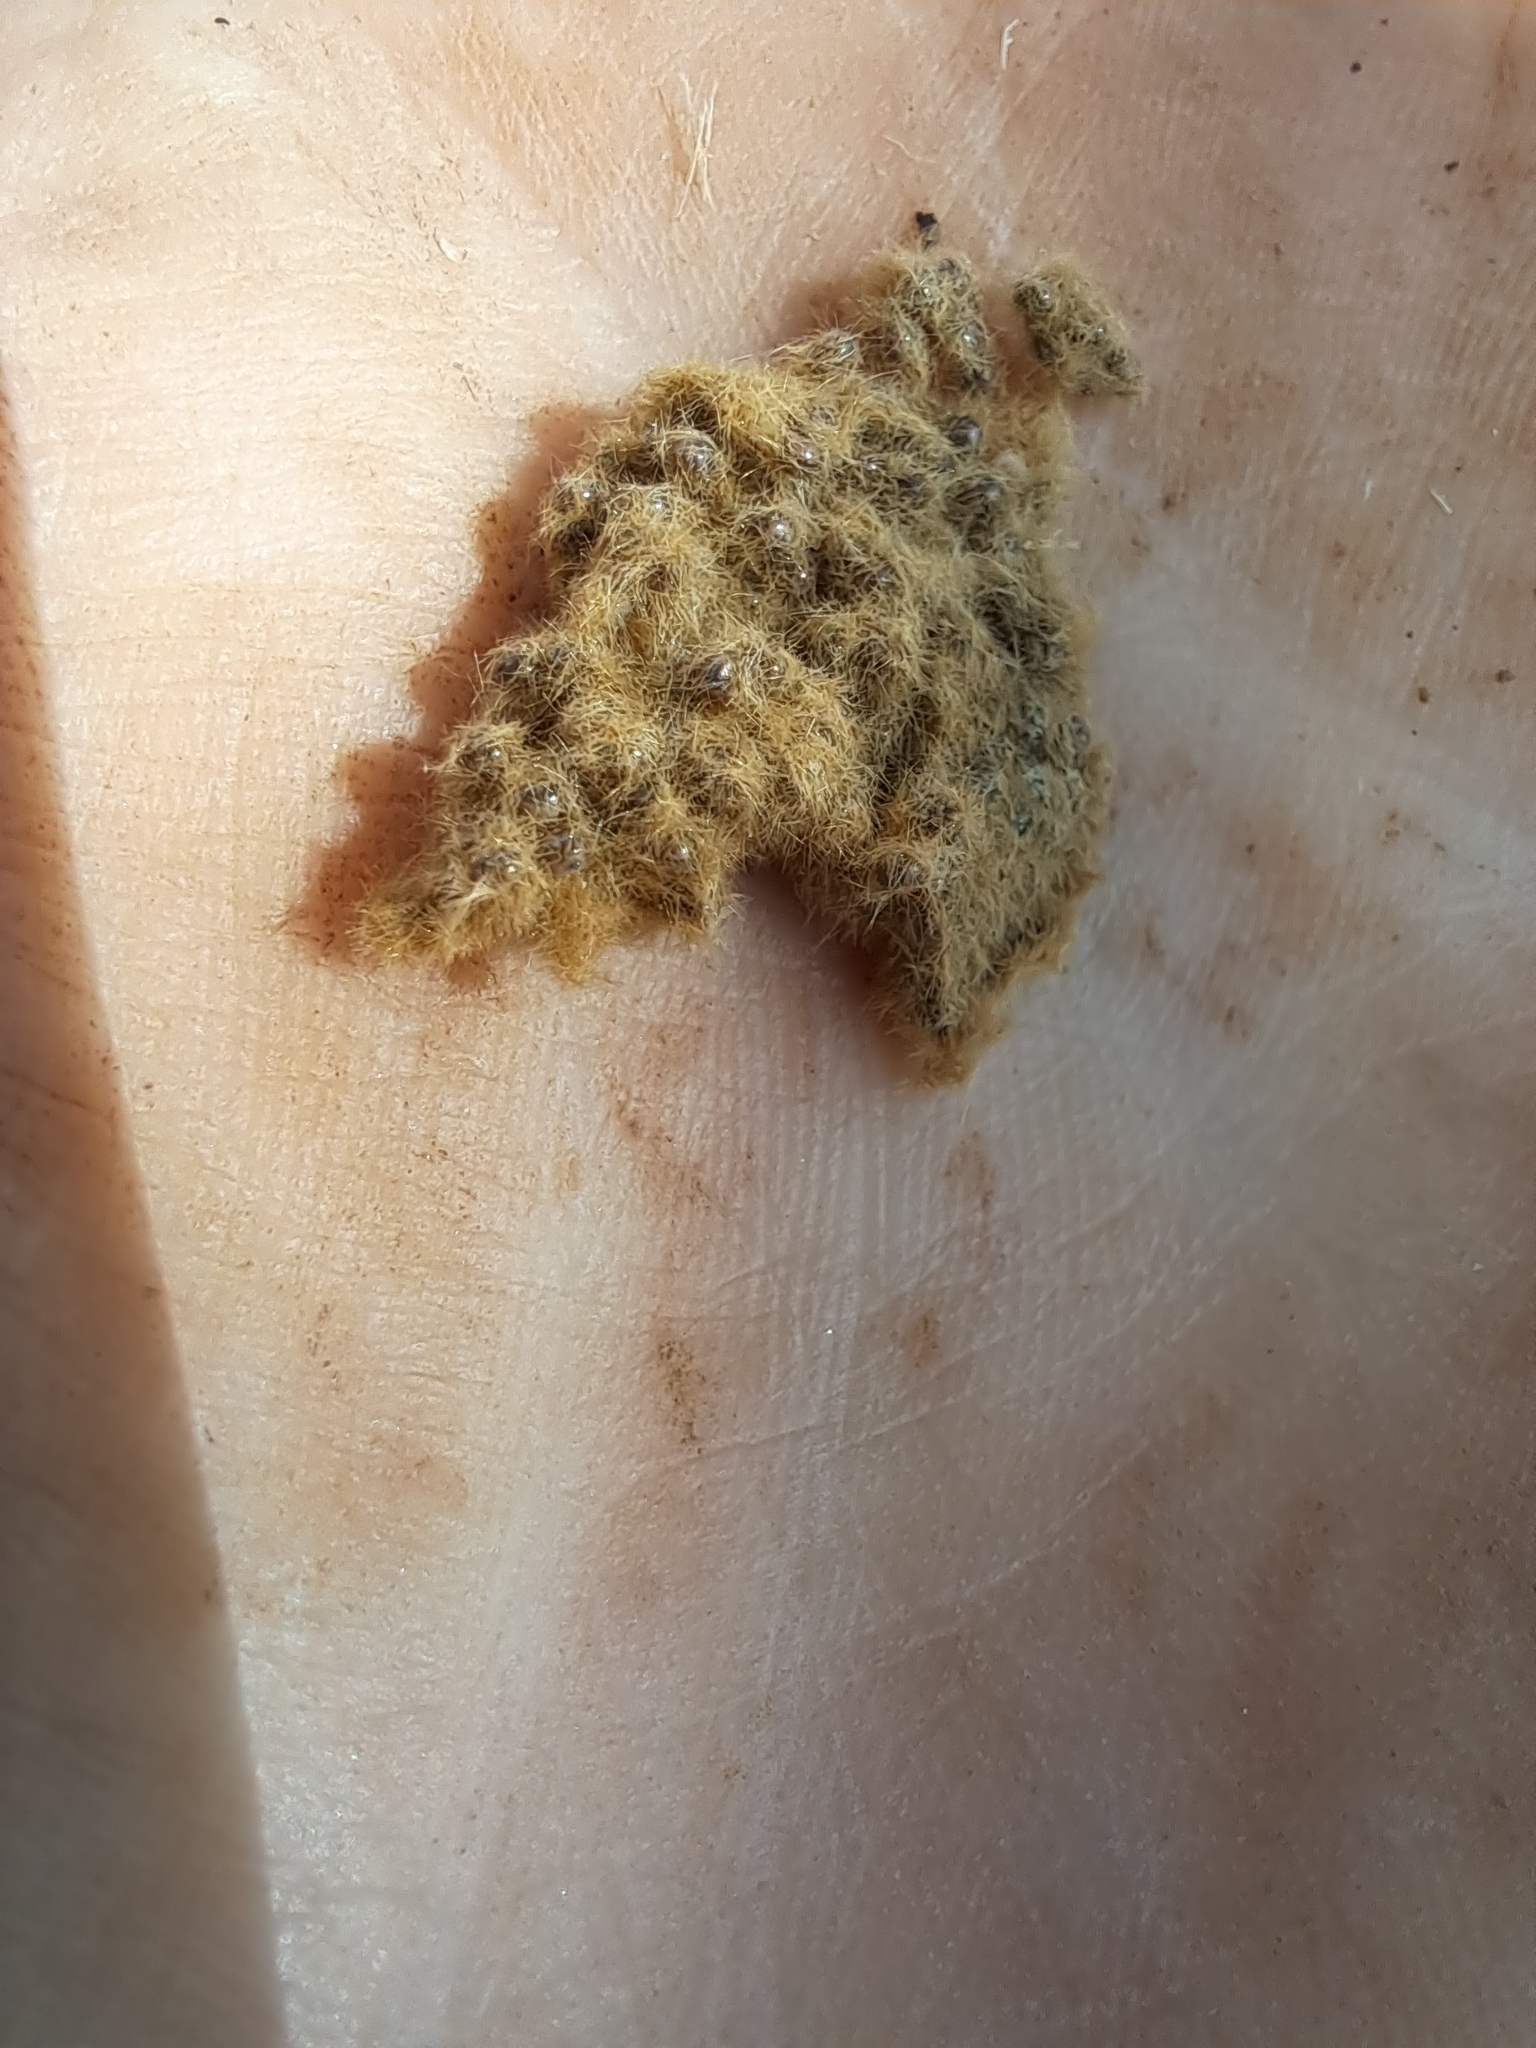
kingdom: Animalia
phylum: Arthropoda
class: Insecta
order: Lepidoptera
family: Erebidae
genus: Lymantria
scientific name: Lymantria dispar
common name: Gypsy moth
